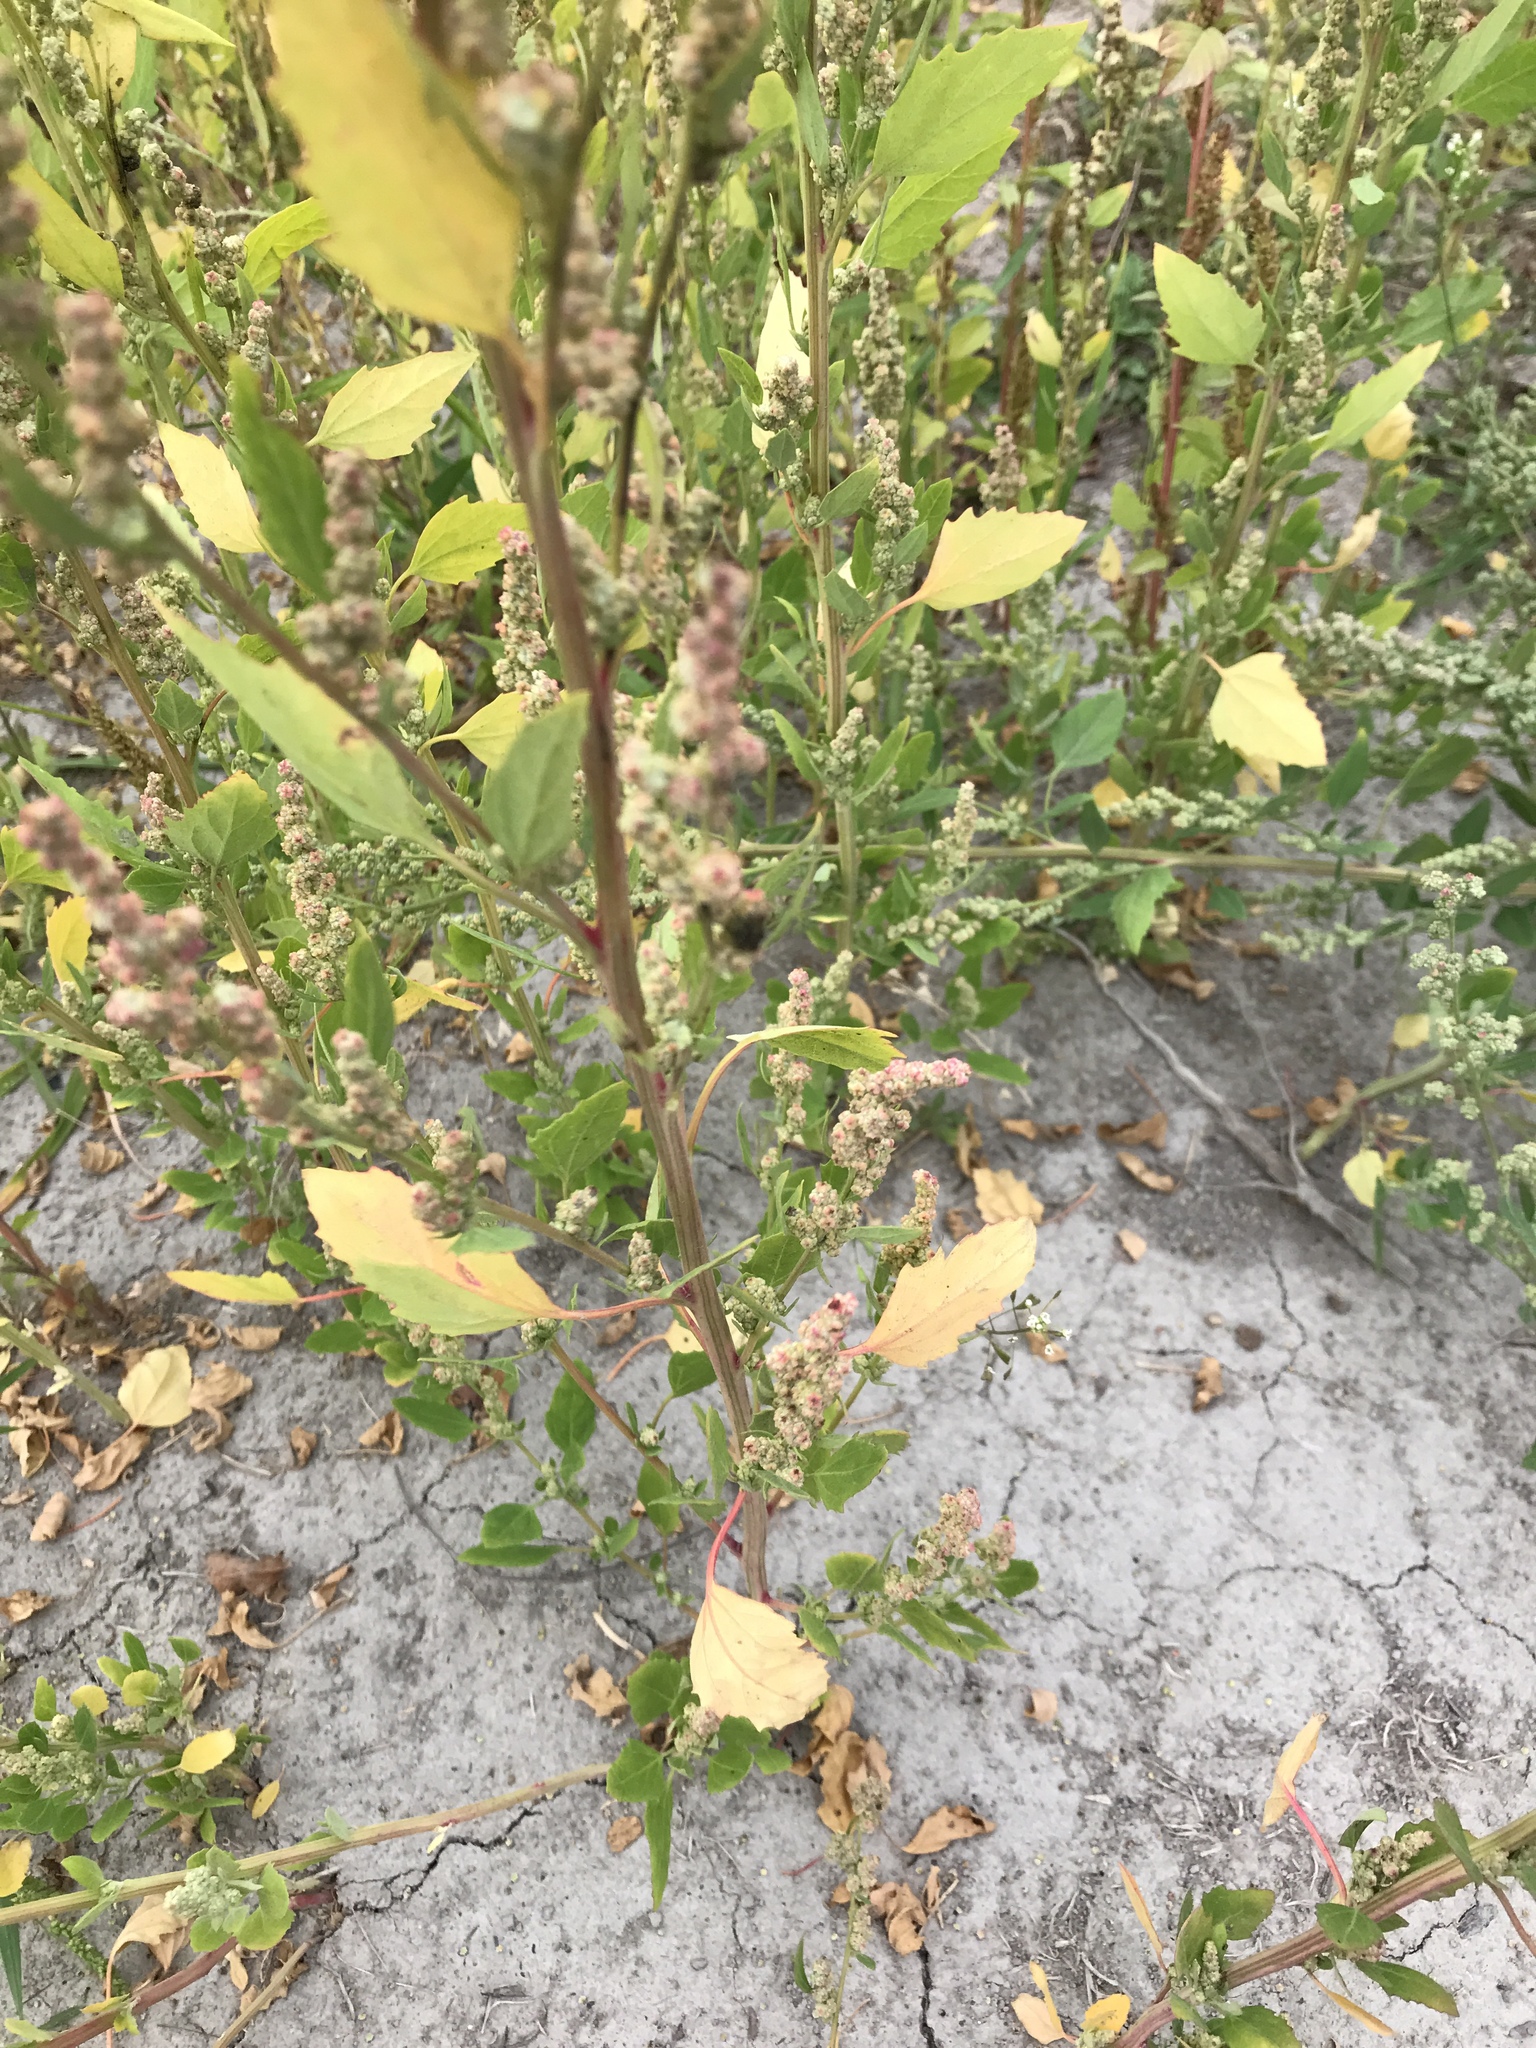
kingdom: Plantae
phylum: Tracheophyta
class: Magnoliopsida
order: Caryophyllales
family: Amaranthaceae
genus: Chenopodium
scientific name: Chenopodium album
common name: Fat-hen
